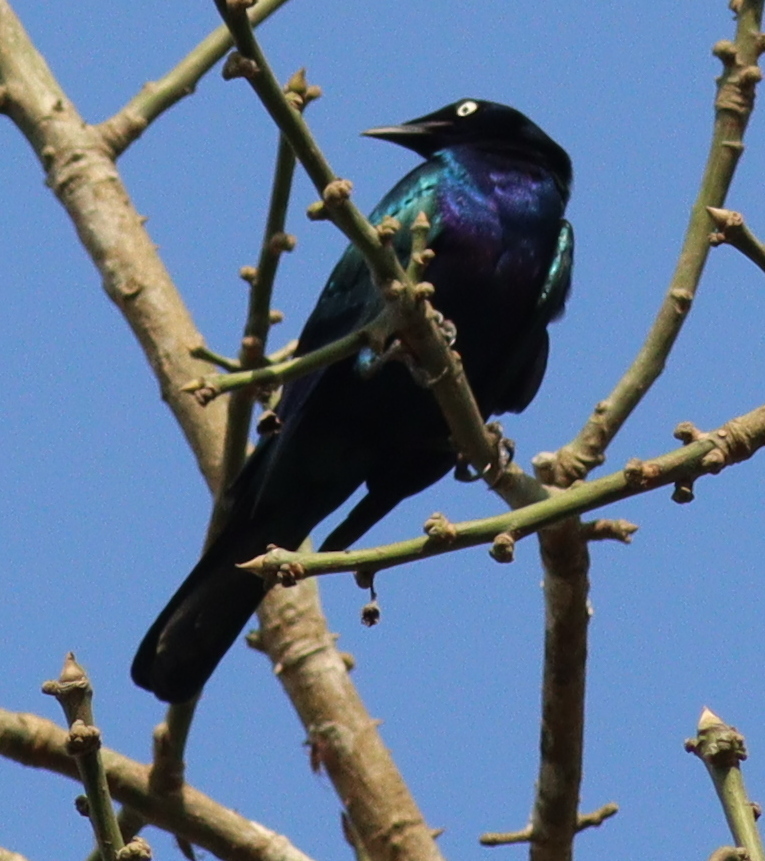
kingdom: Animalia
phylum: Chordata
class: Aves
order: Passeriformes
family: Sturnidae
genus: Lamprotornis
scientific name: Lamprotornis splendidus
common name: Splendid starling
